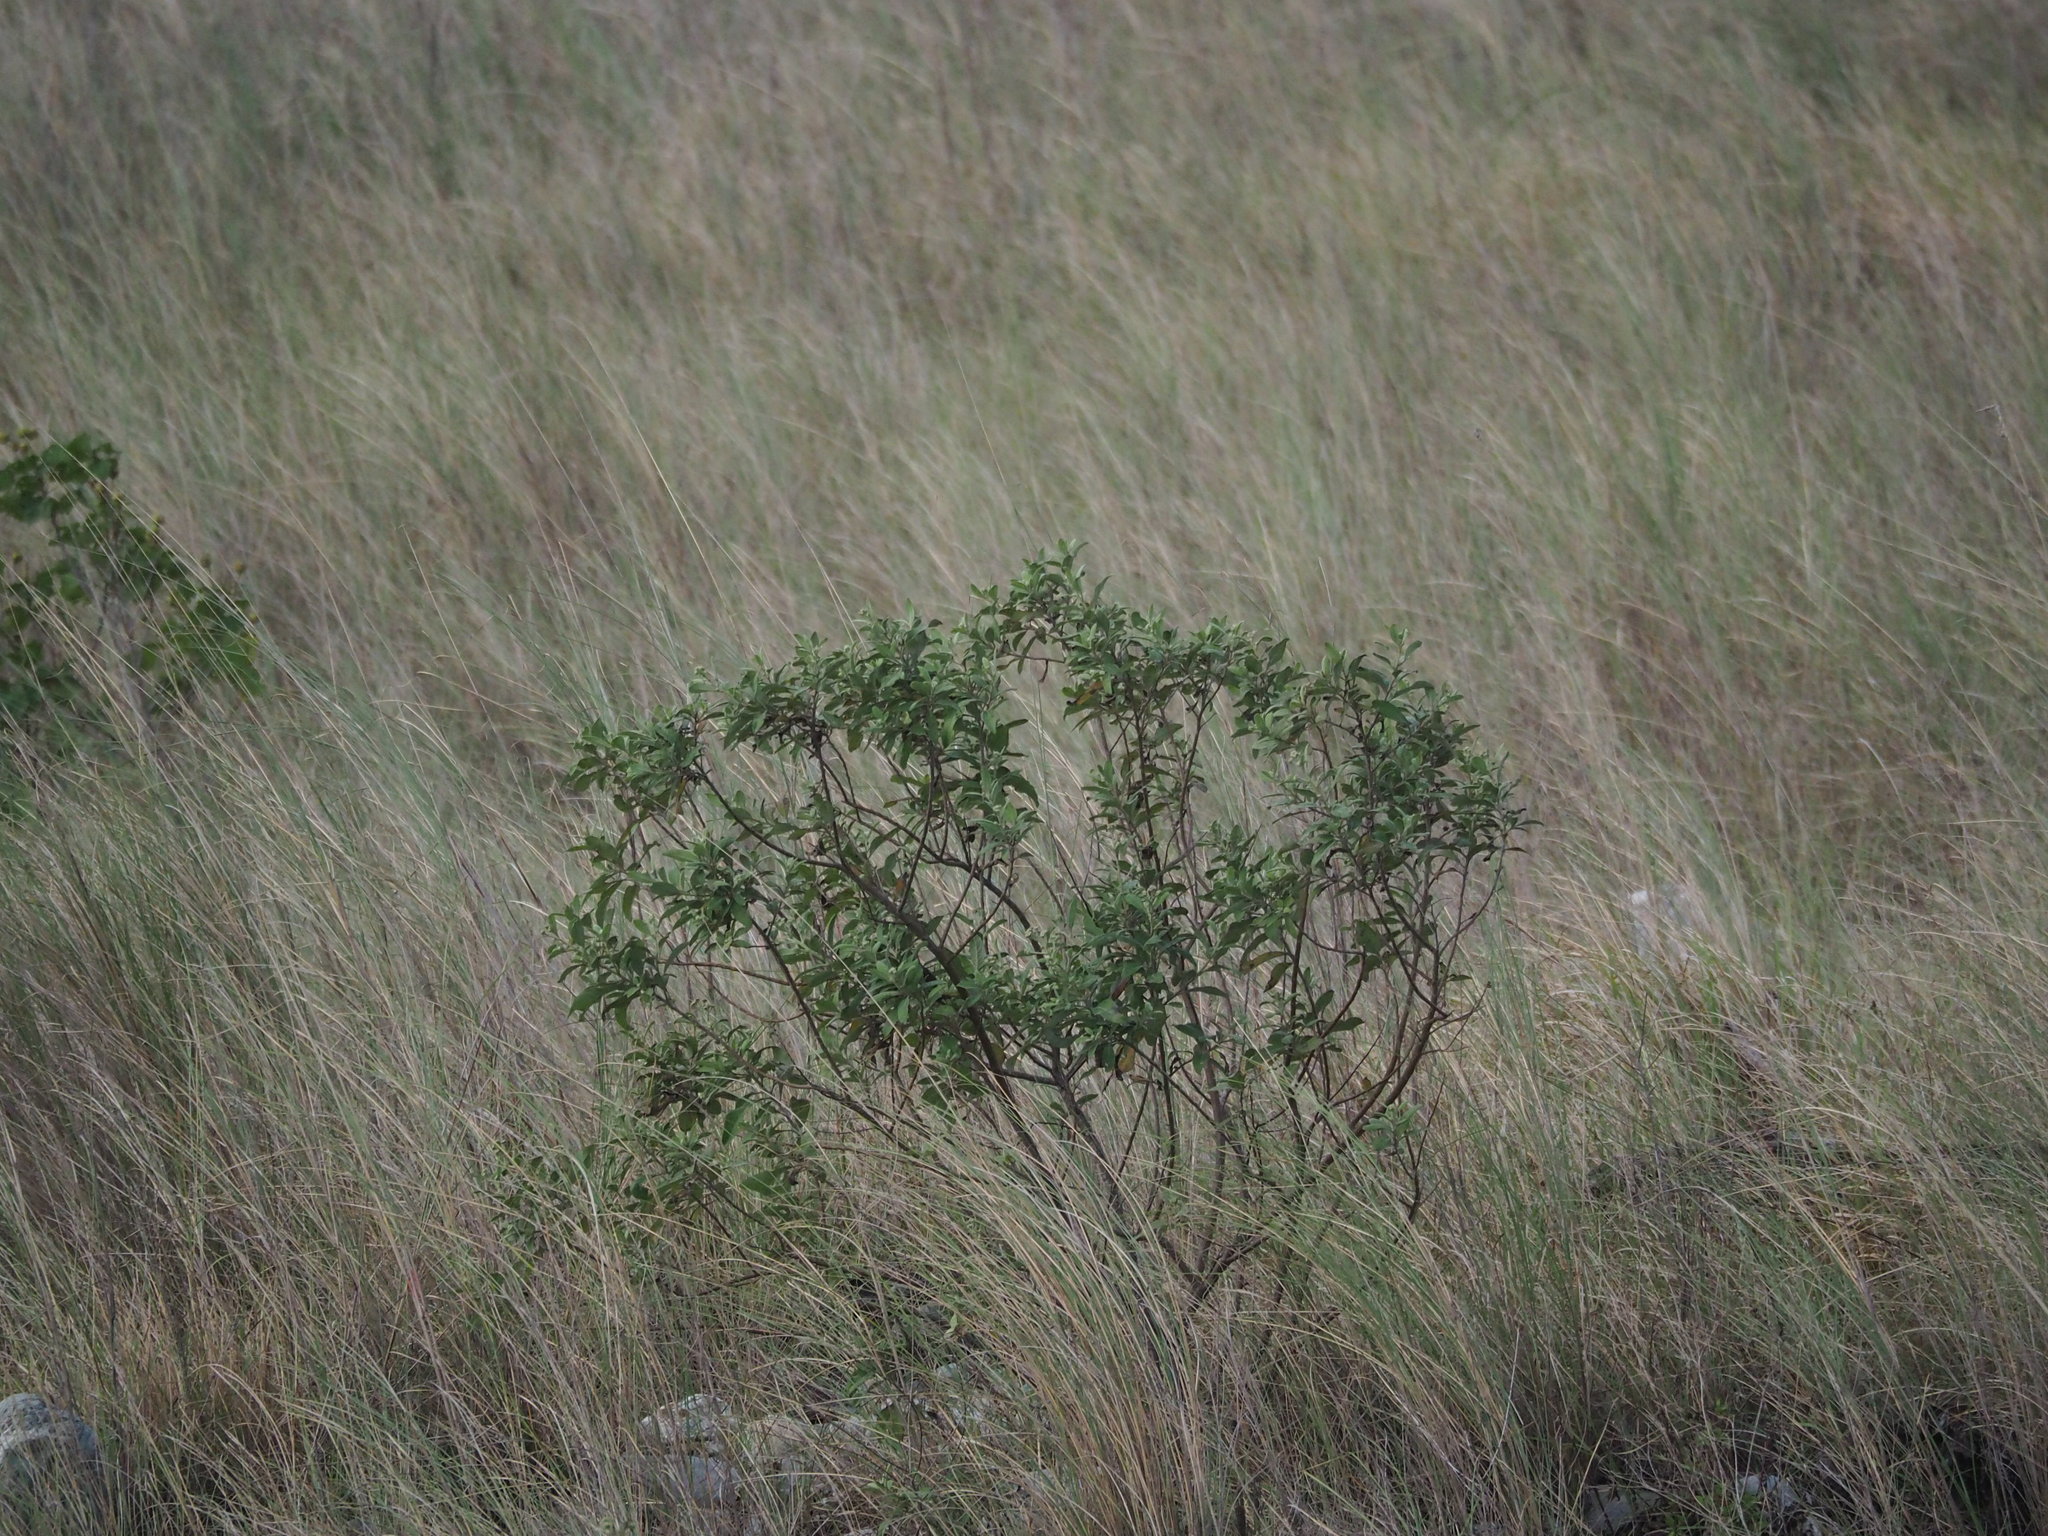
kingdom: Plantae
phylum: Tracheophyta
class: Magnoliopsida
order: Asterales
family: Asteraceae
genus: Pluchea
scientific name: Pluchea carolinensis
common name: Marsh fleabane
